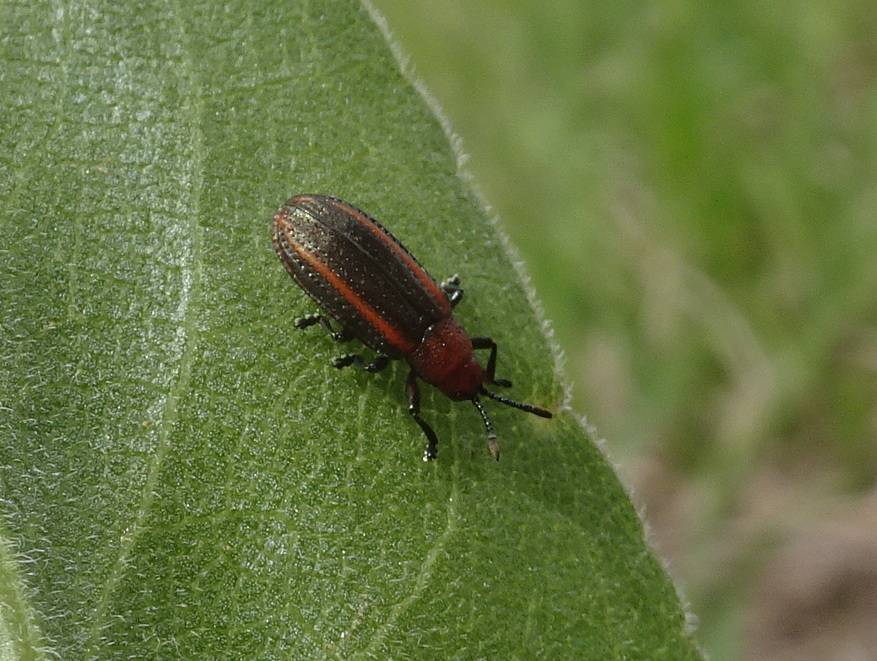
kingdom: Animalia
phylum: Arthropoda
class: Insecta
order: Coleoptera
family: Chrysomelidae
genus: Microrhopala
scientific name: Microrhopala vittata
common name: Goldenrod leaf miner beetle
